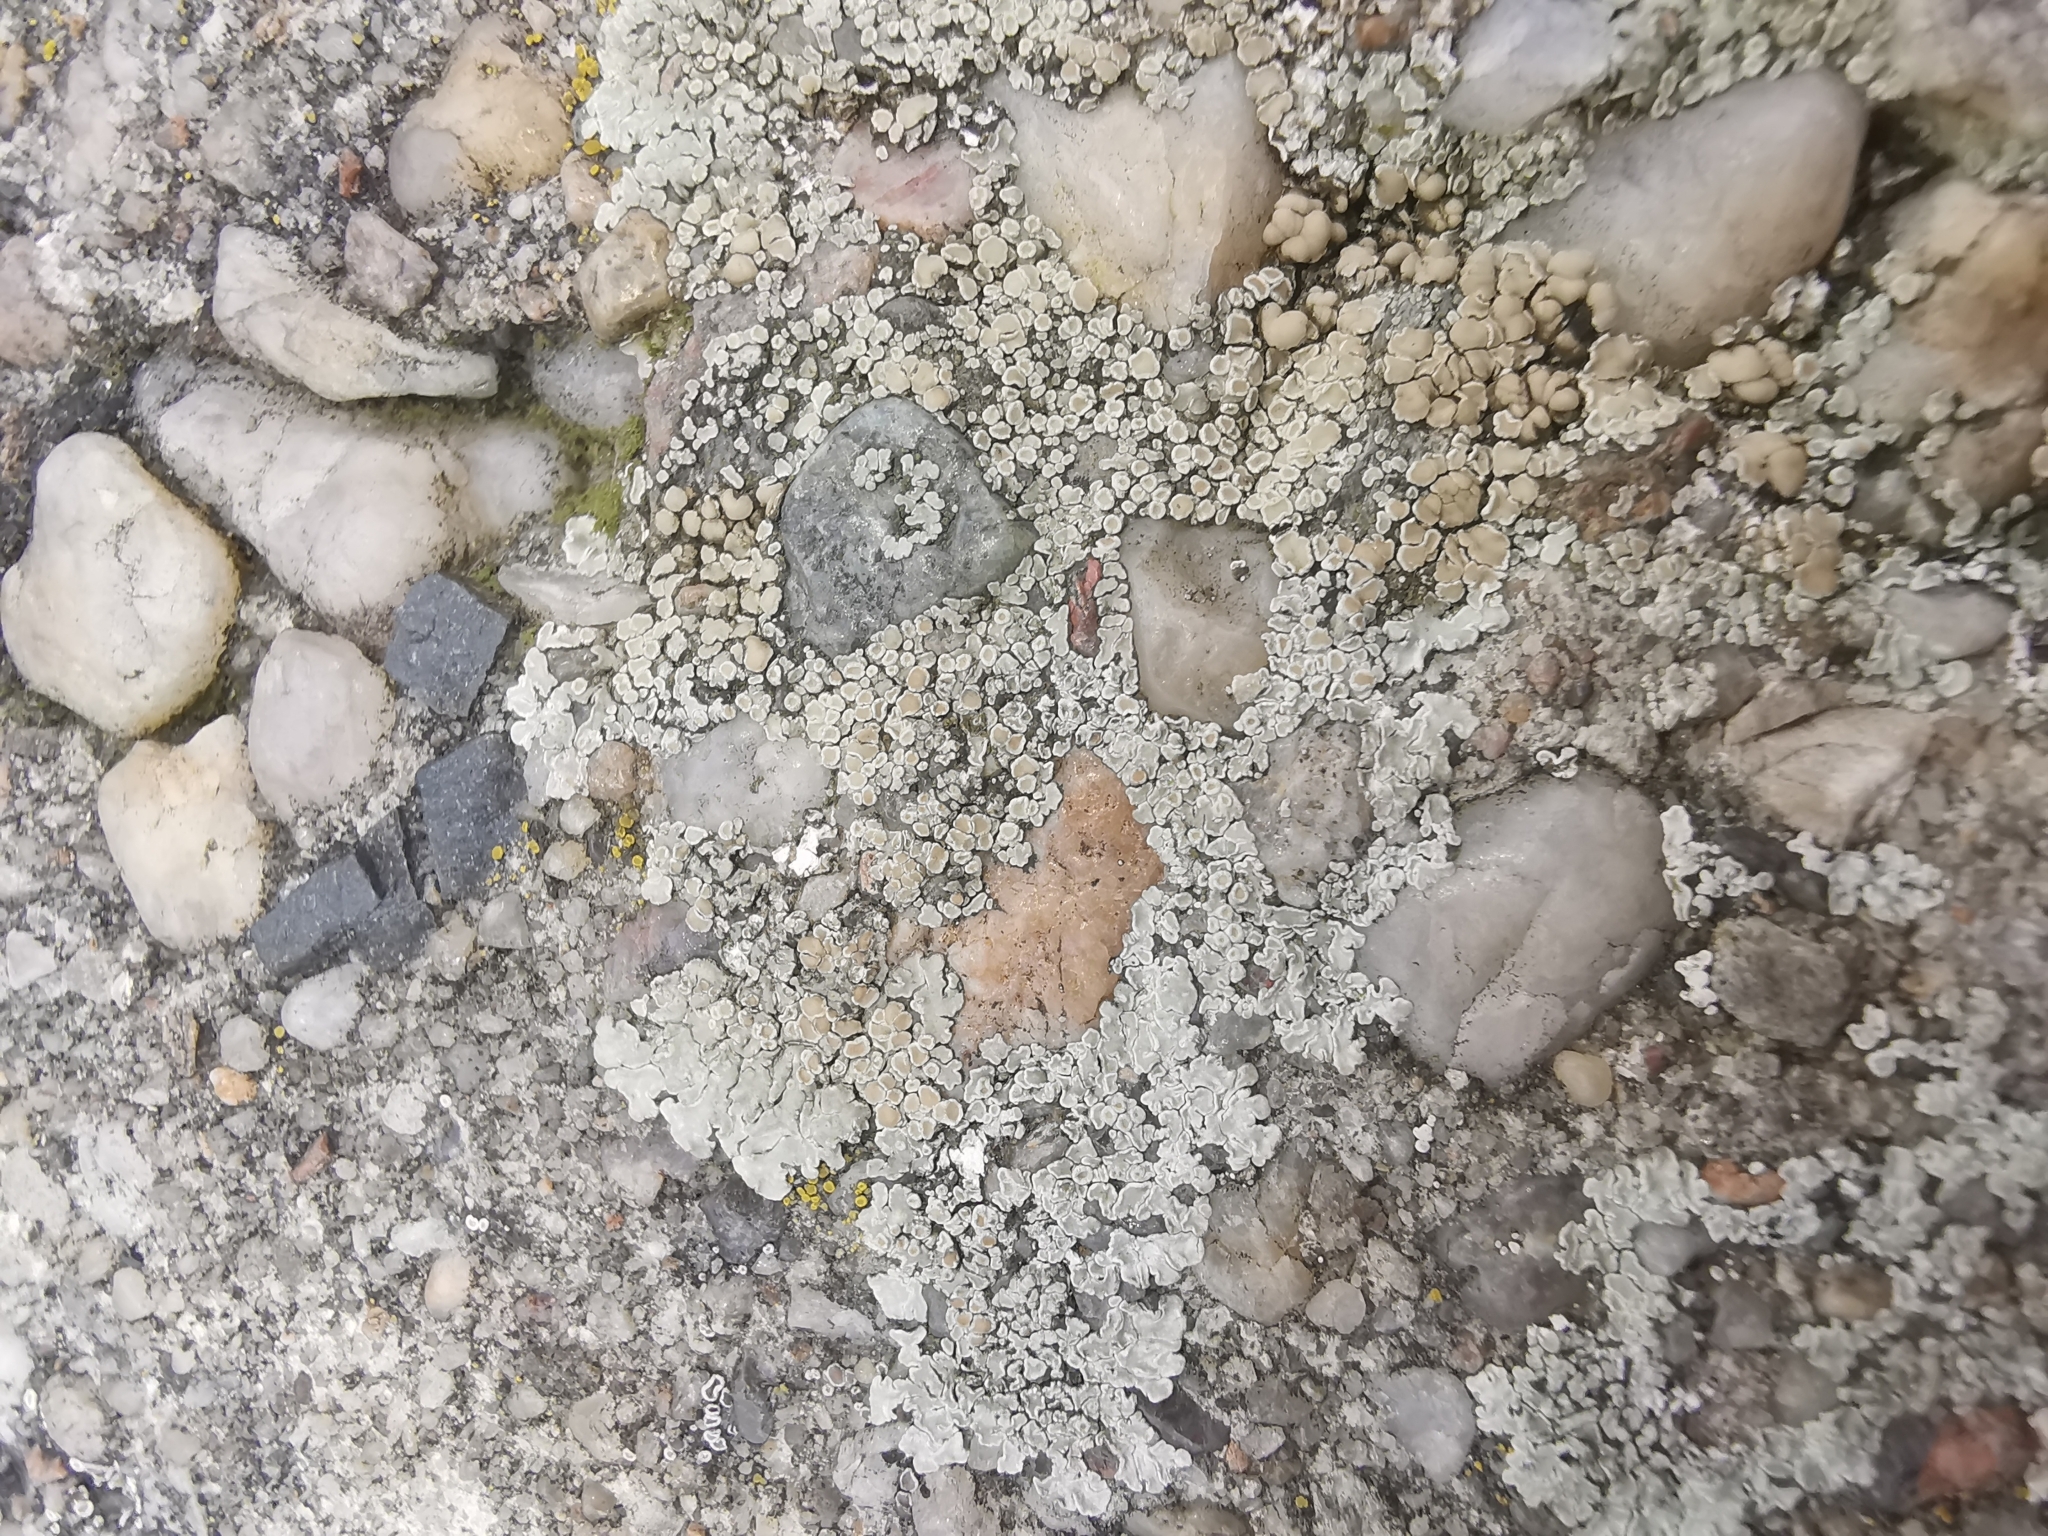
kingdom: Fungi
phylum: Ascomycota
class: Lecanoromycetes
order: Lecanorales
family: Lecanoraceae
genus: Protoparmeliopsis
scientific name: Protoparmeliopsis muralis
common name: Stonewall rim lichen
